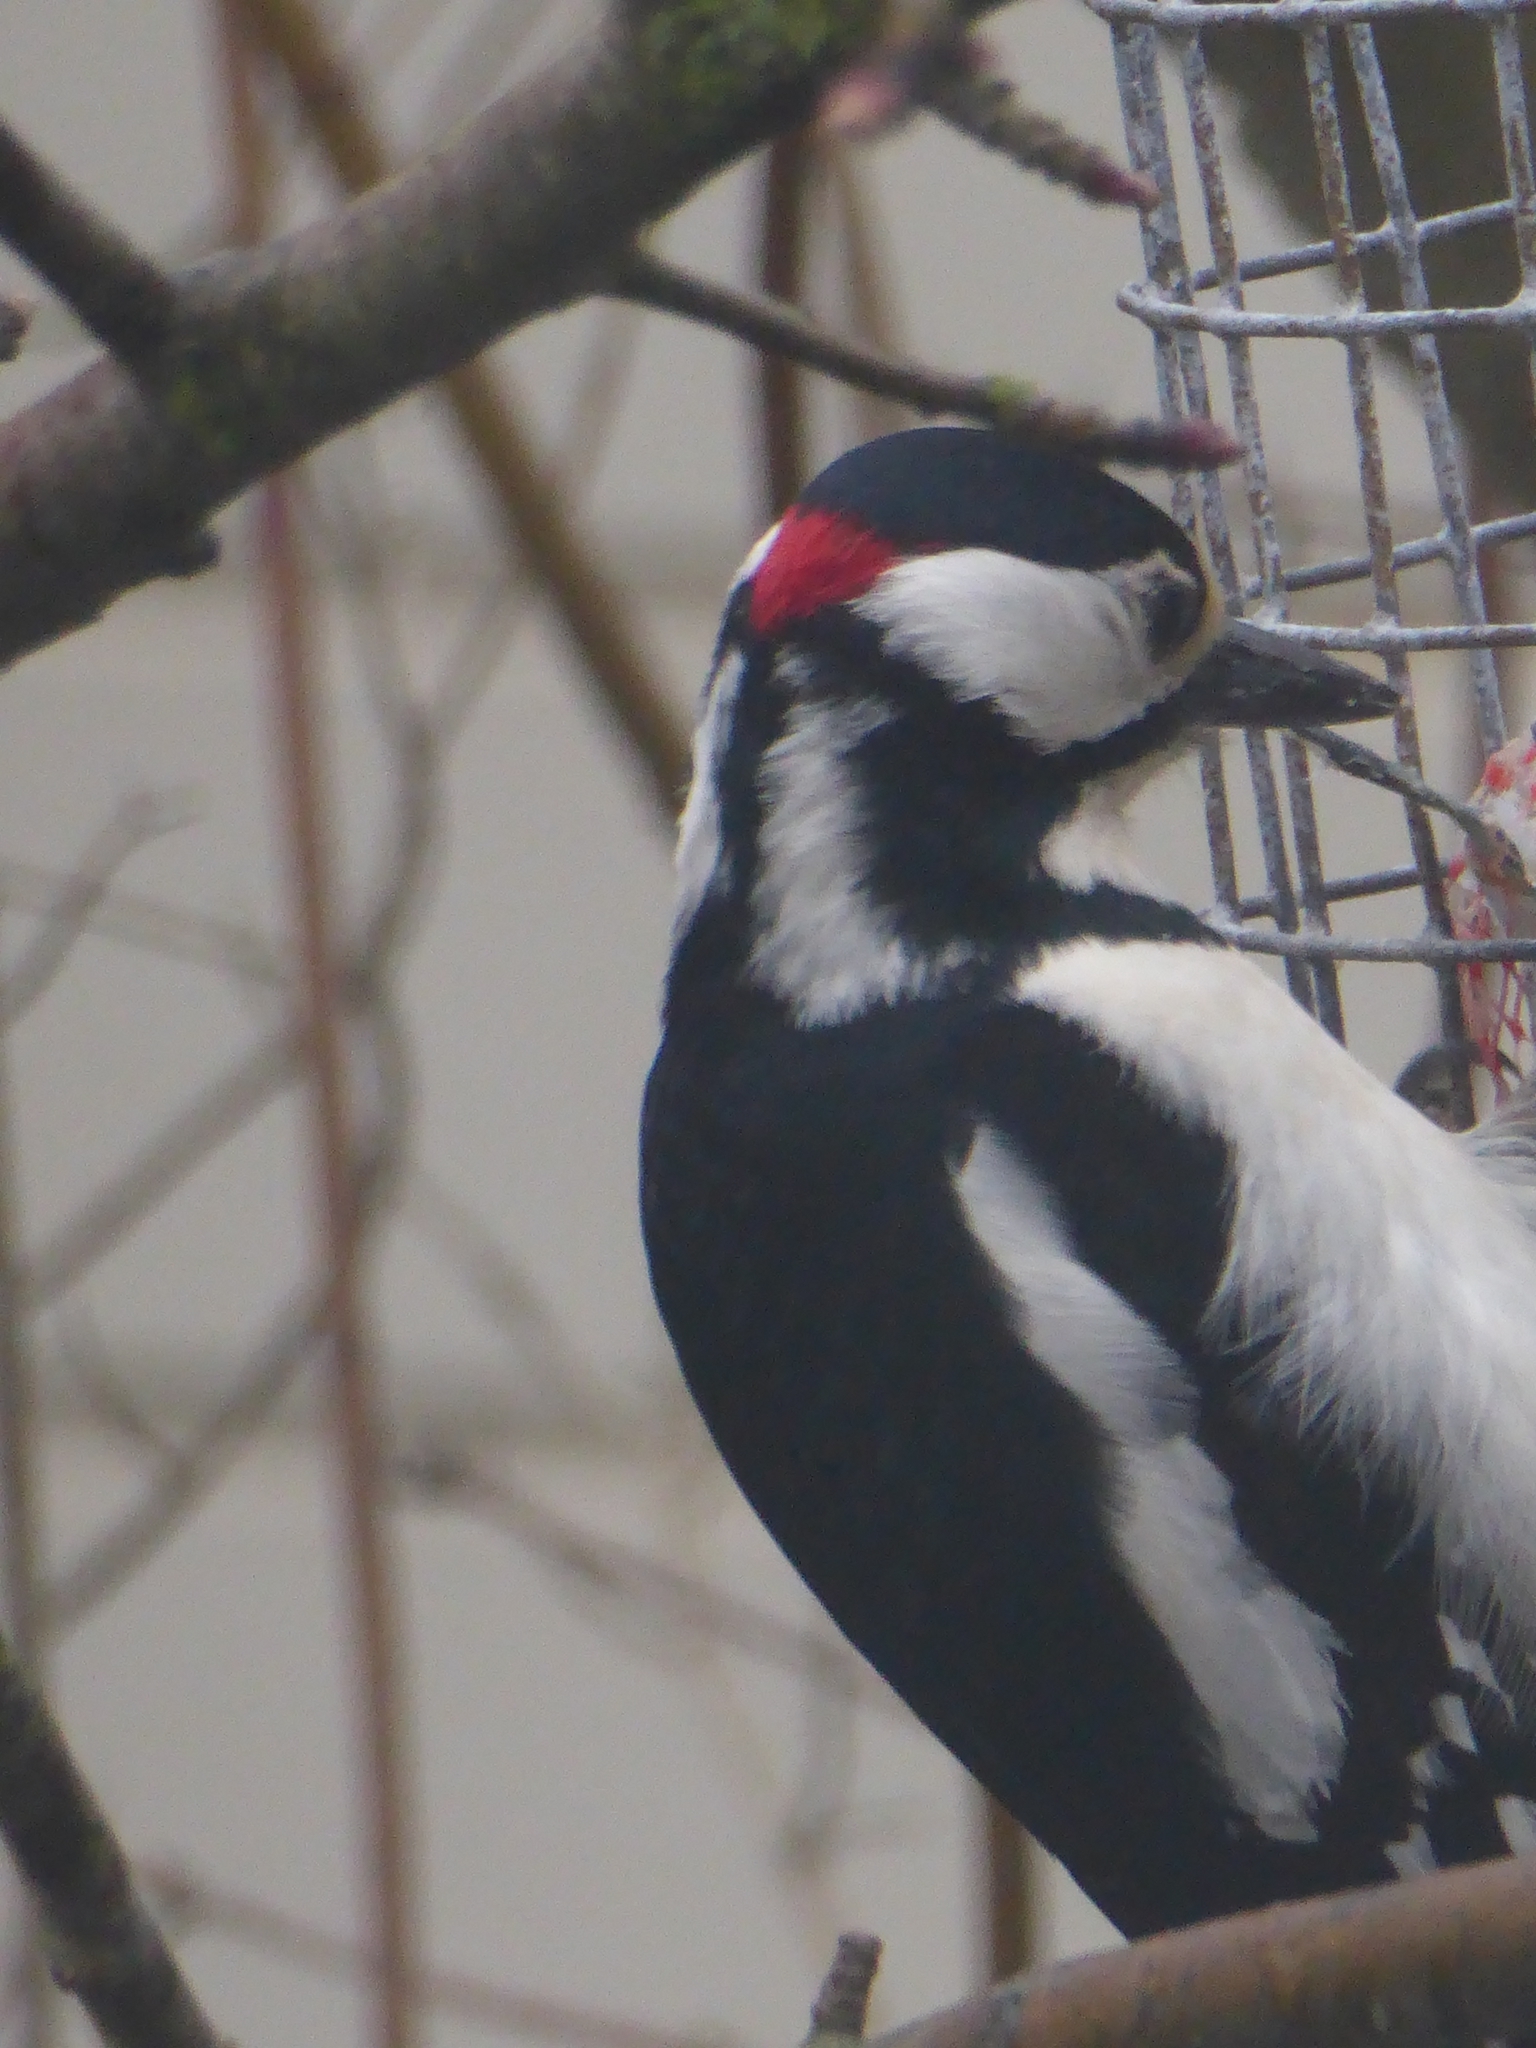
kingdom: Animalia
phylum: Chordata
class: Aves
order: Piciformes
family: Picidae
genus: Dendrocopos
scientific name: Dendrocopos major
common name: Great spotted woodpecker
